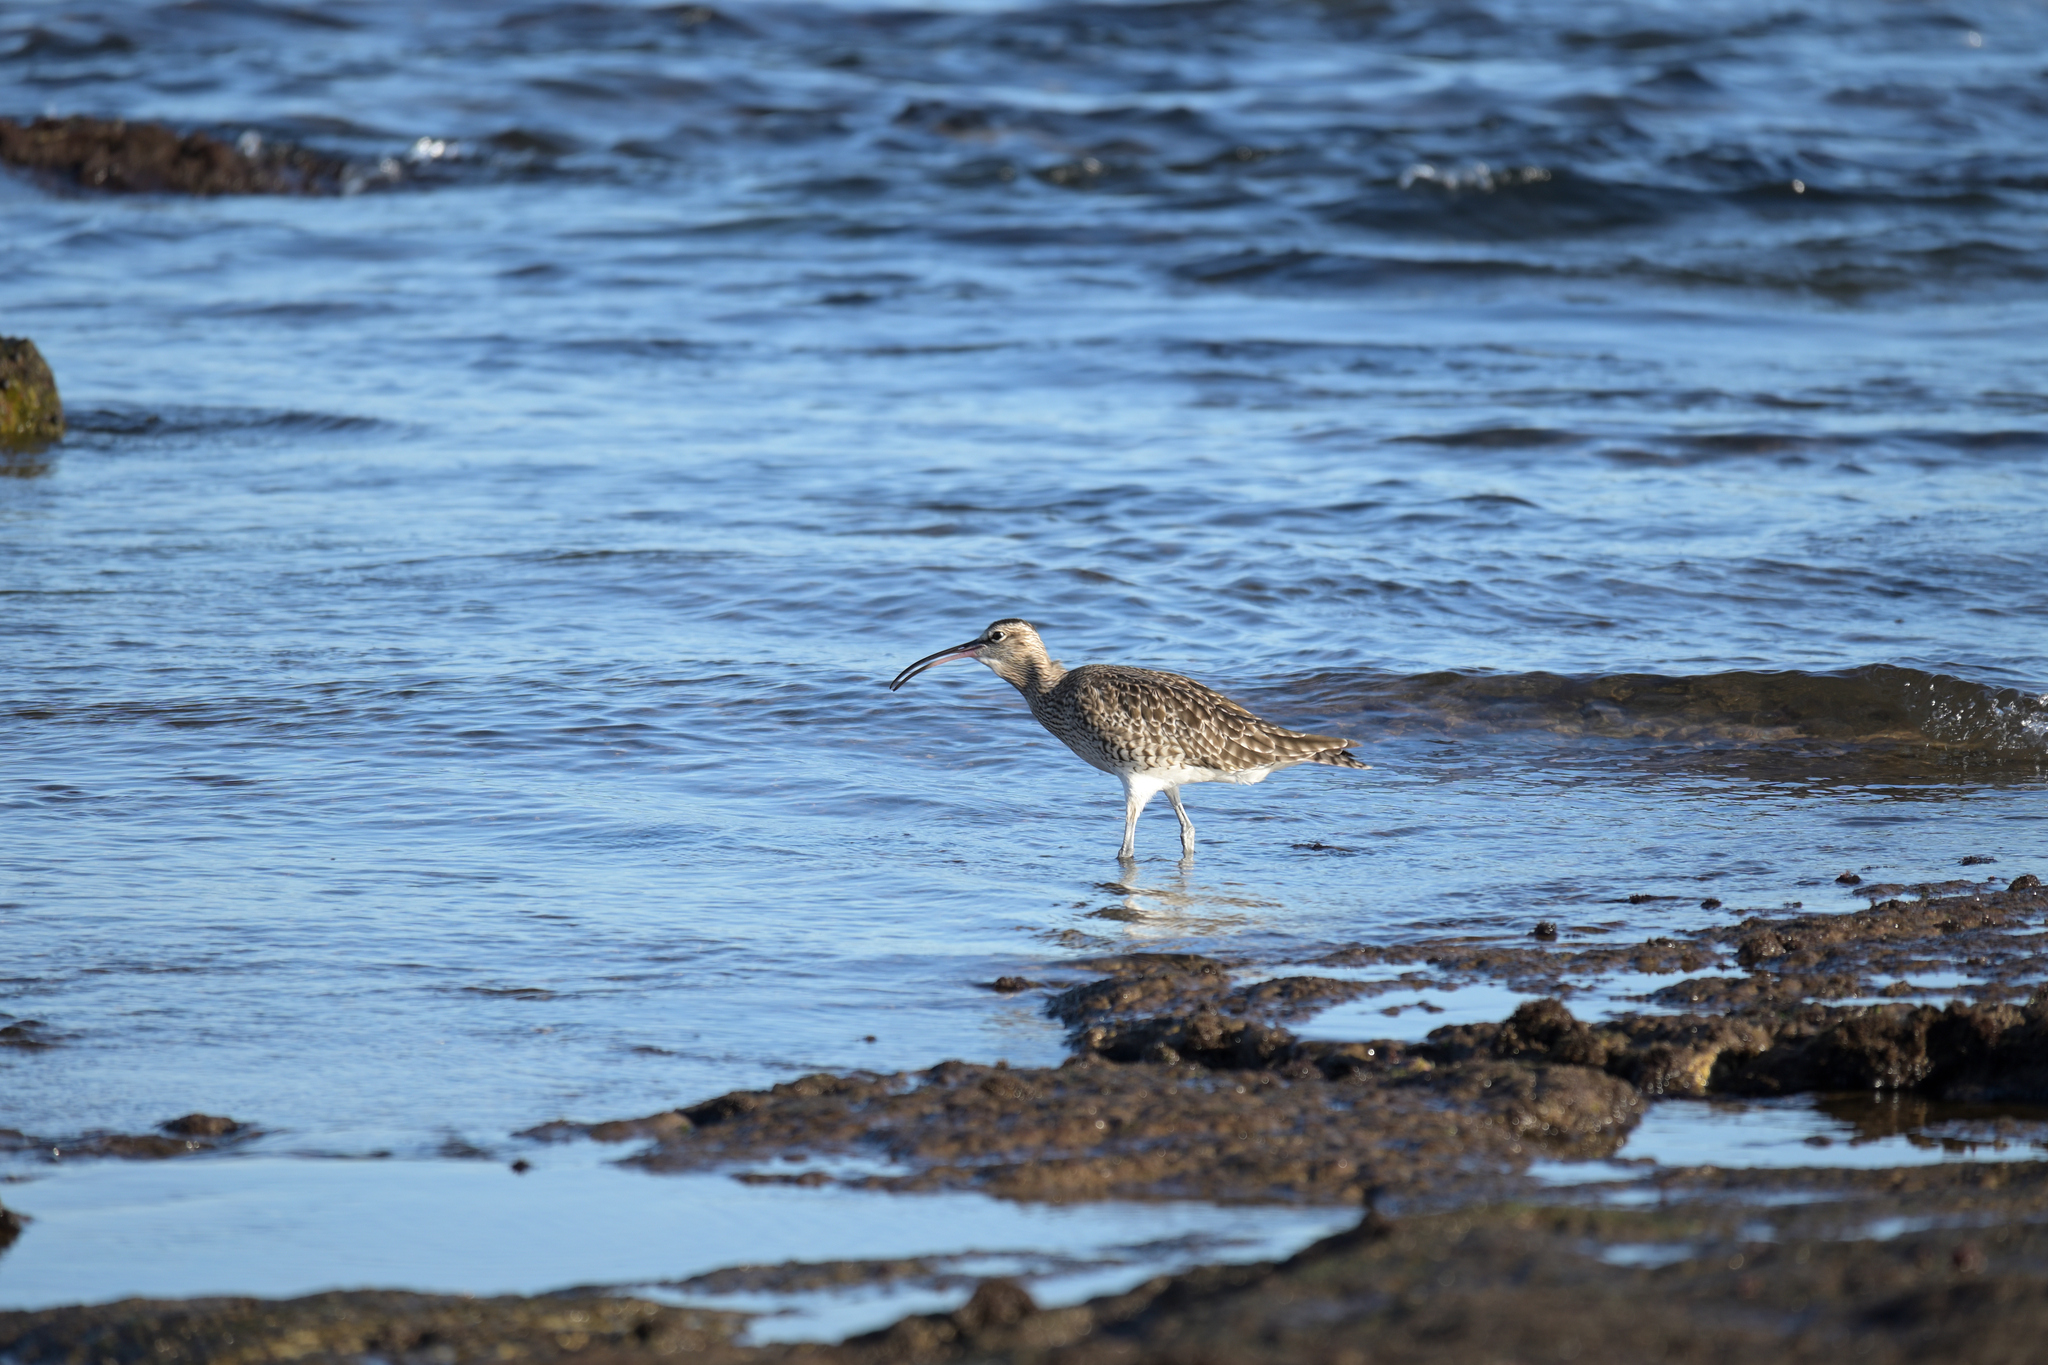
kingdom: Animalia
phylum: Chordata
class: Aves
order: Charadriiformes
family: Scolopacidae
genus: Numenius
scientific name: Numenius phaeopus
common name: Whimbrel
